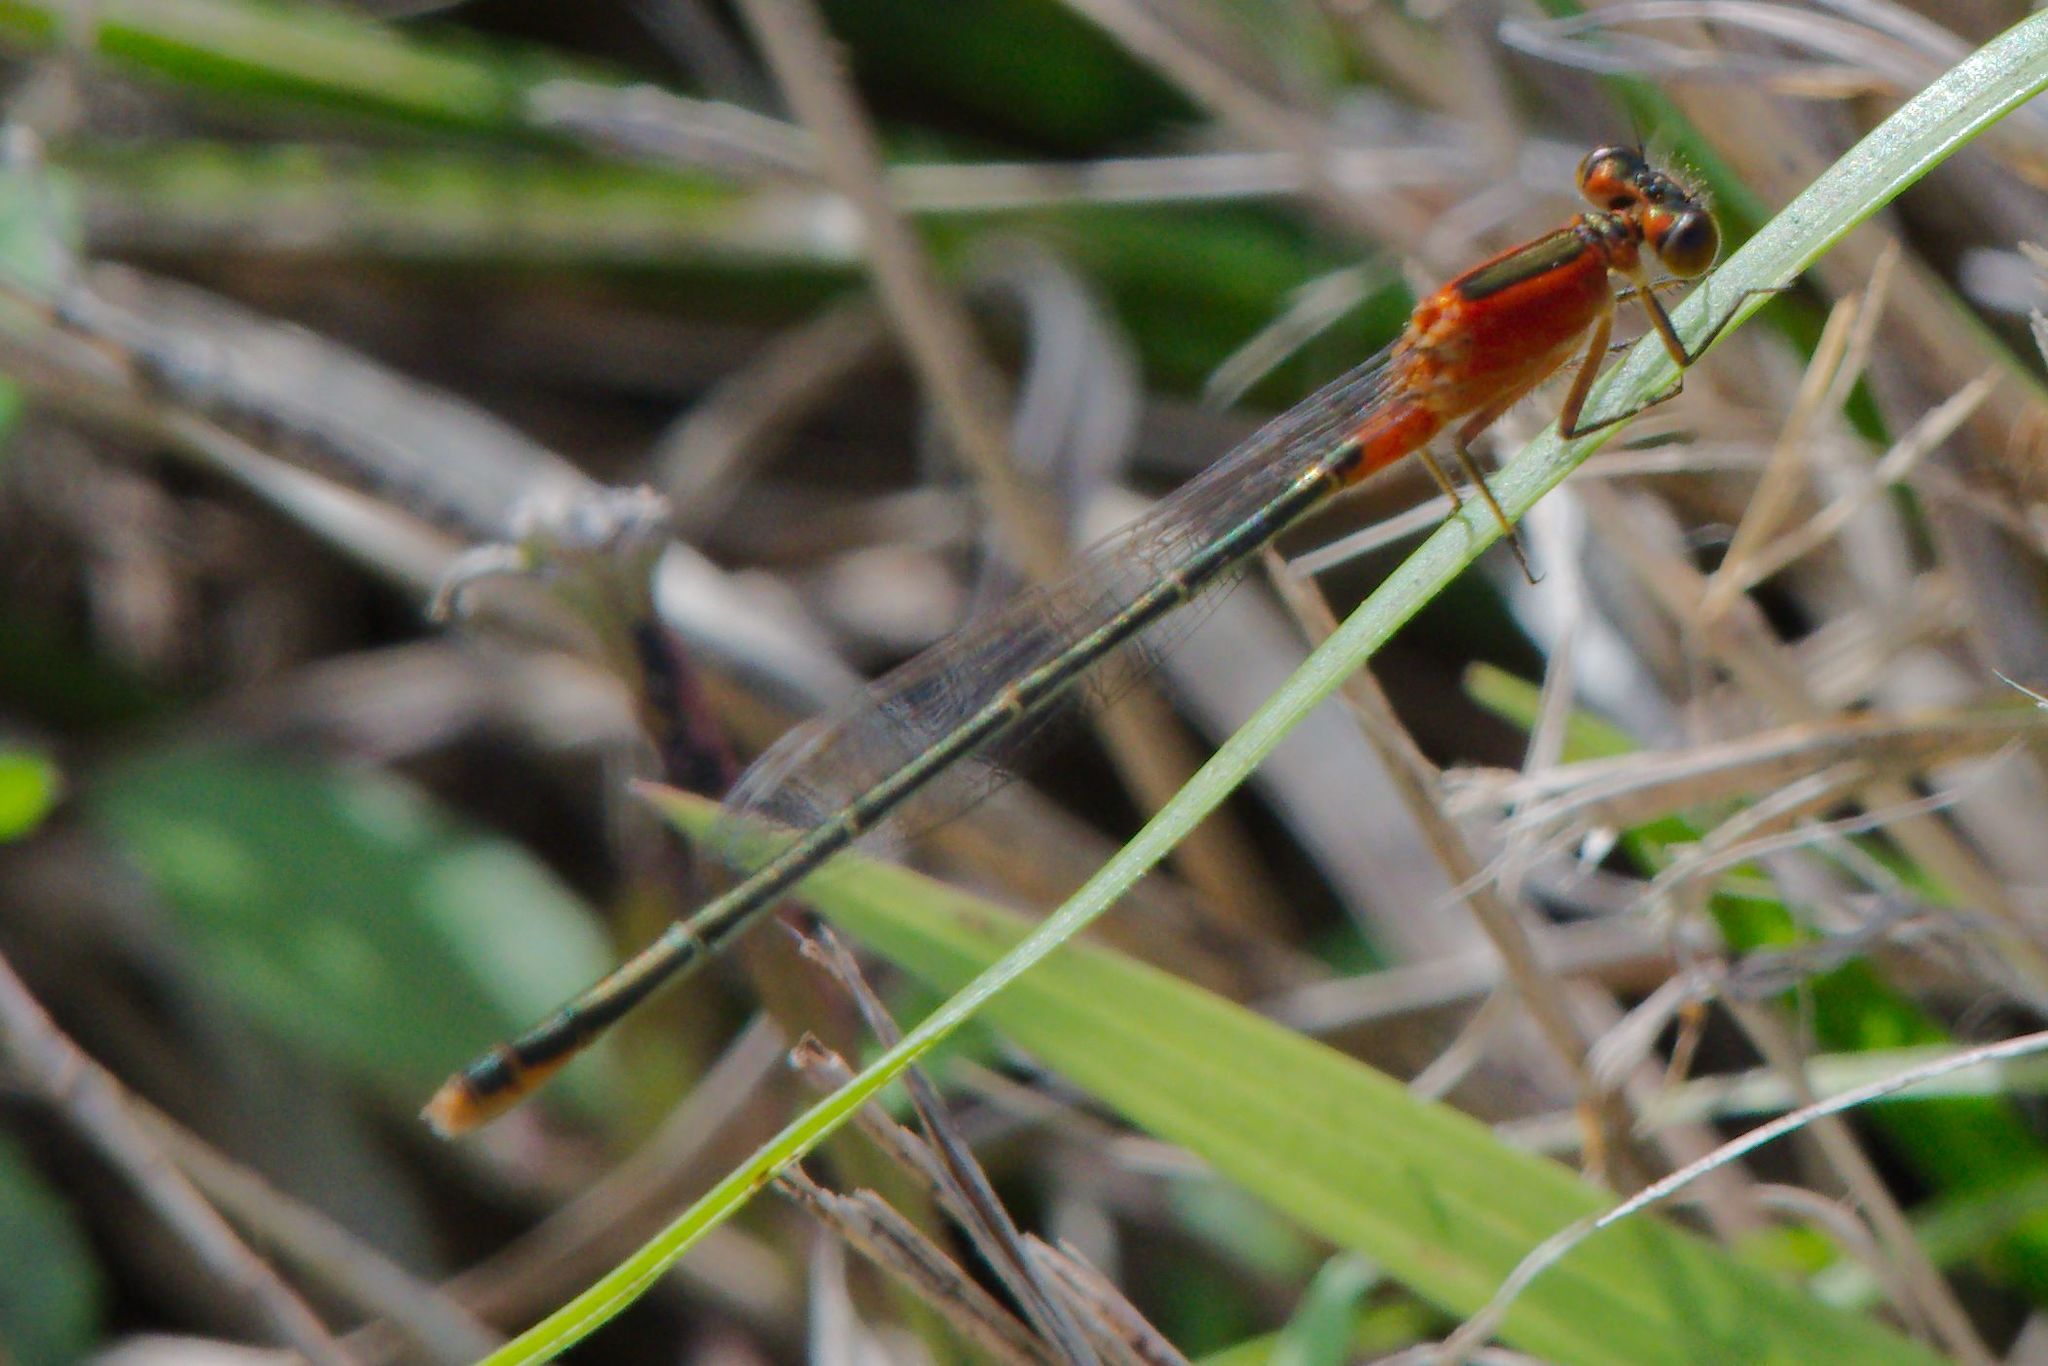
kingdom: Animalia
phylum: Arthropoda
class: Insecta
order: Odonata
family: Coenagrionidae
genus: Ischnura
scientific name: Ischnura ramburii
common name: Rambur's forktail
